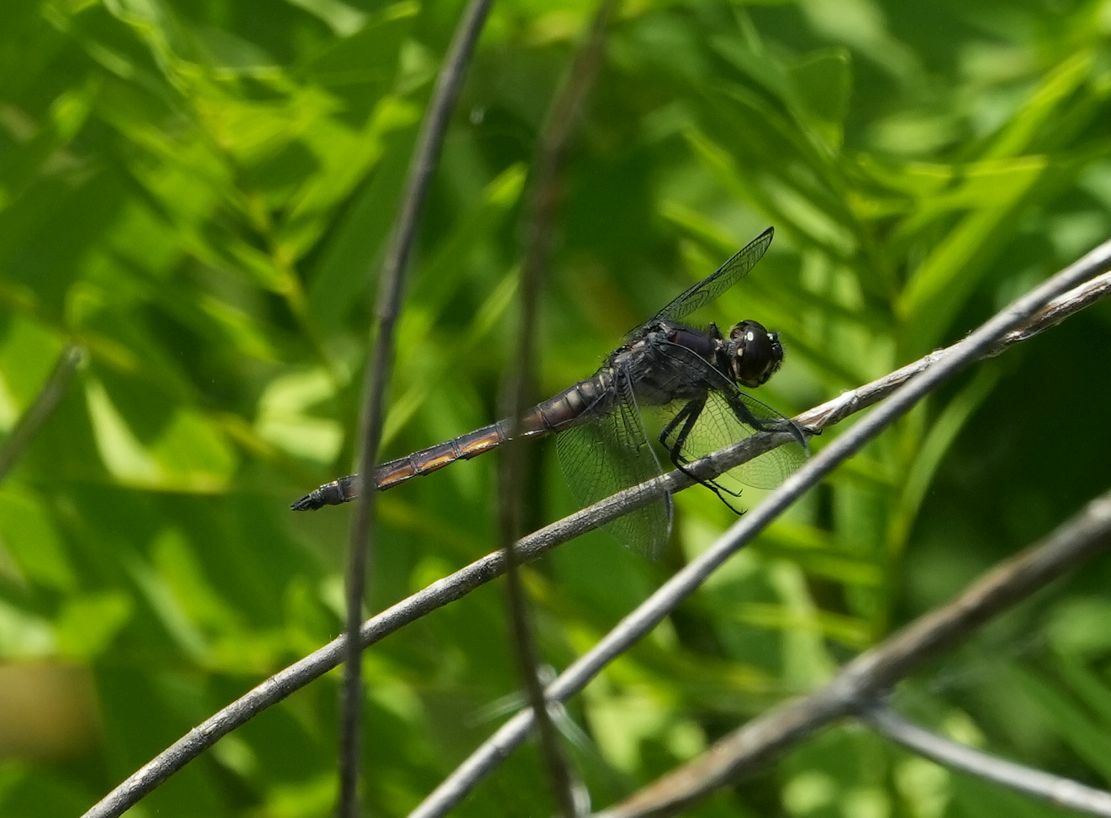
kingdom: Animalia
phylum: Arthropoda
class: Insecta
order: Odonata
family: Libellulidae
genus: Libellula
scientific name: Libellula incesta
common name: Slaty skimmer
